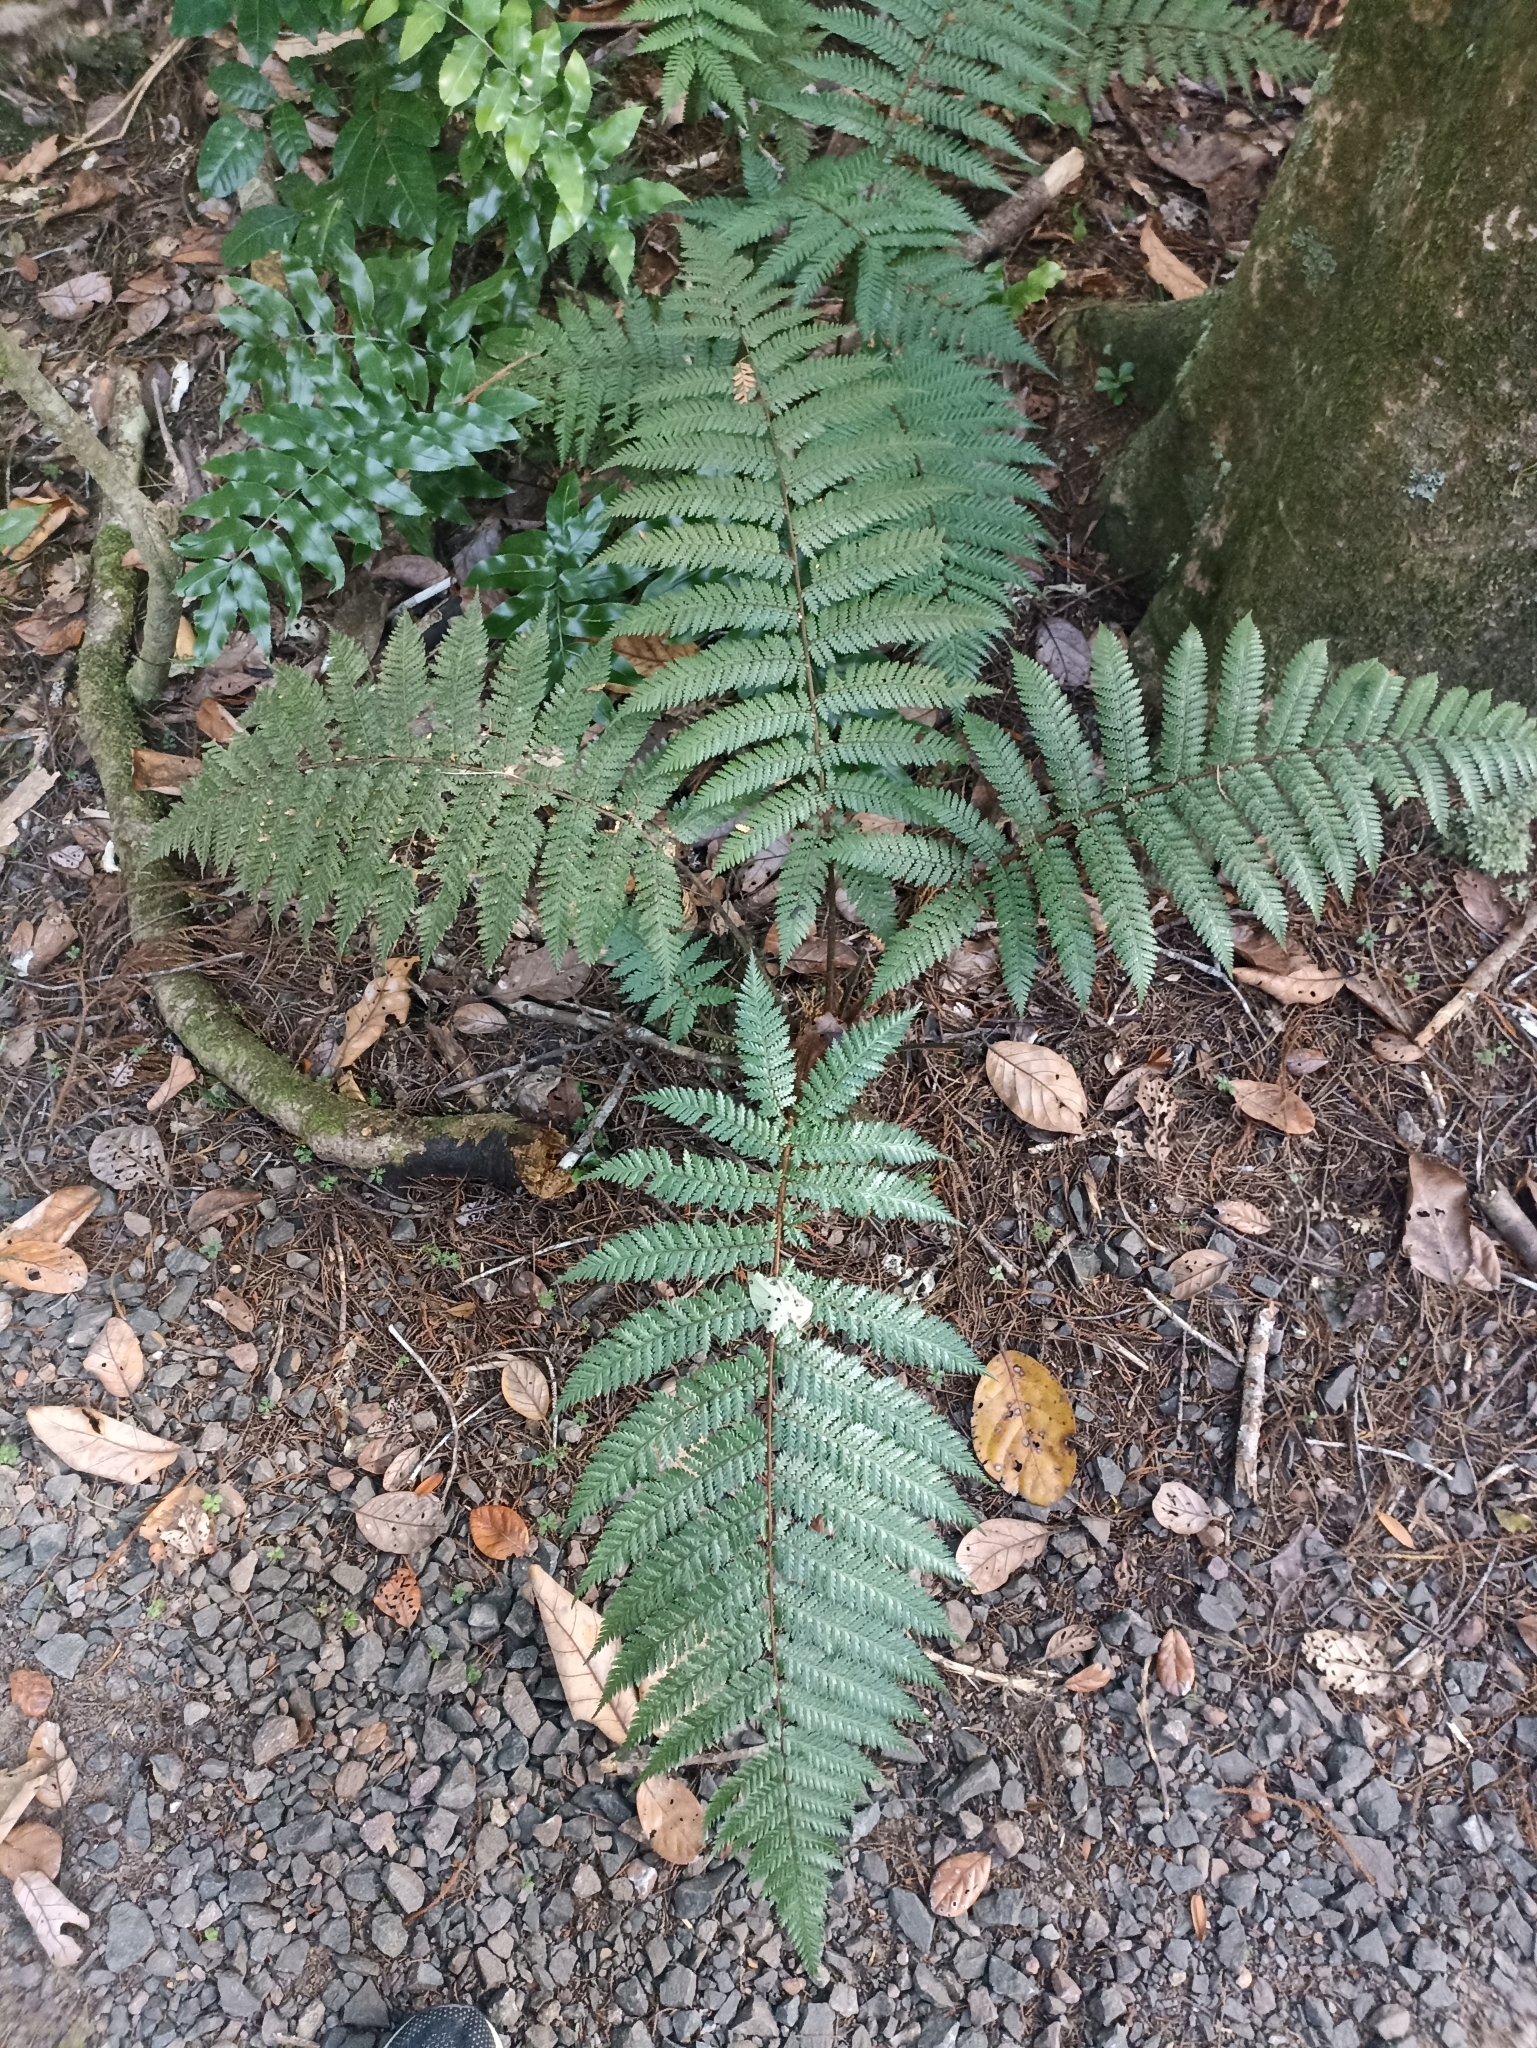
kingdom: Plantae
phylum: Tracheophyta
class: Polypodiopsida
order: Cyatheales
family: Dicksoniaceae
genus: Dicksonia
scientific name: Dicksonia squarrosa
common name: Hard treefern
